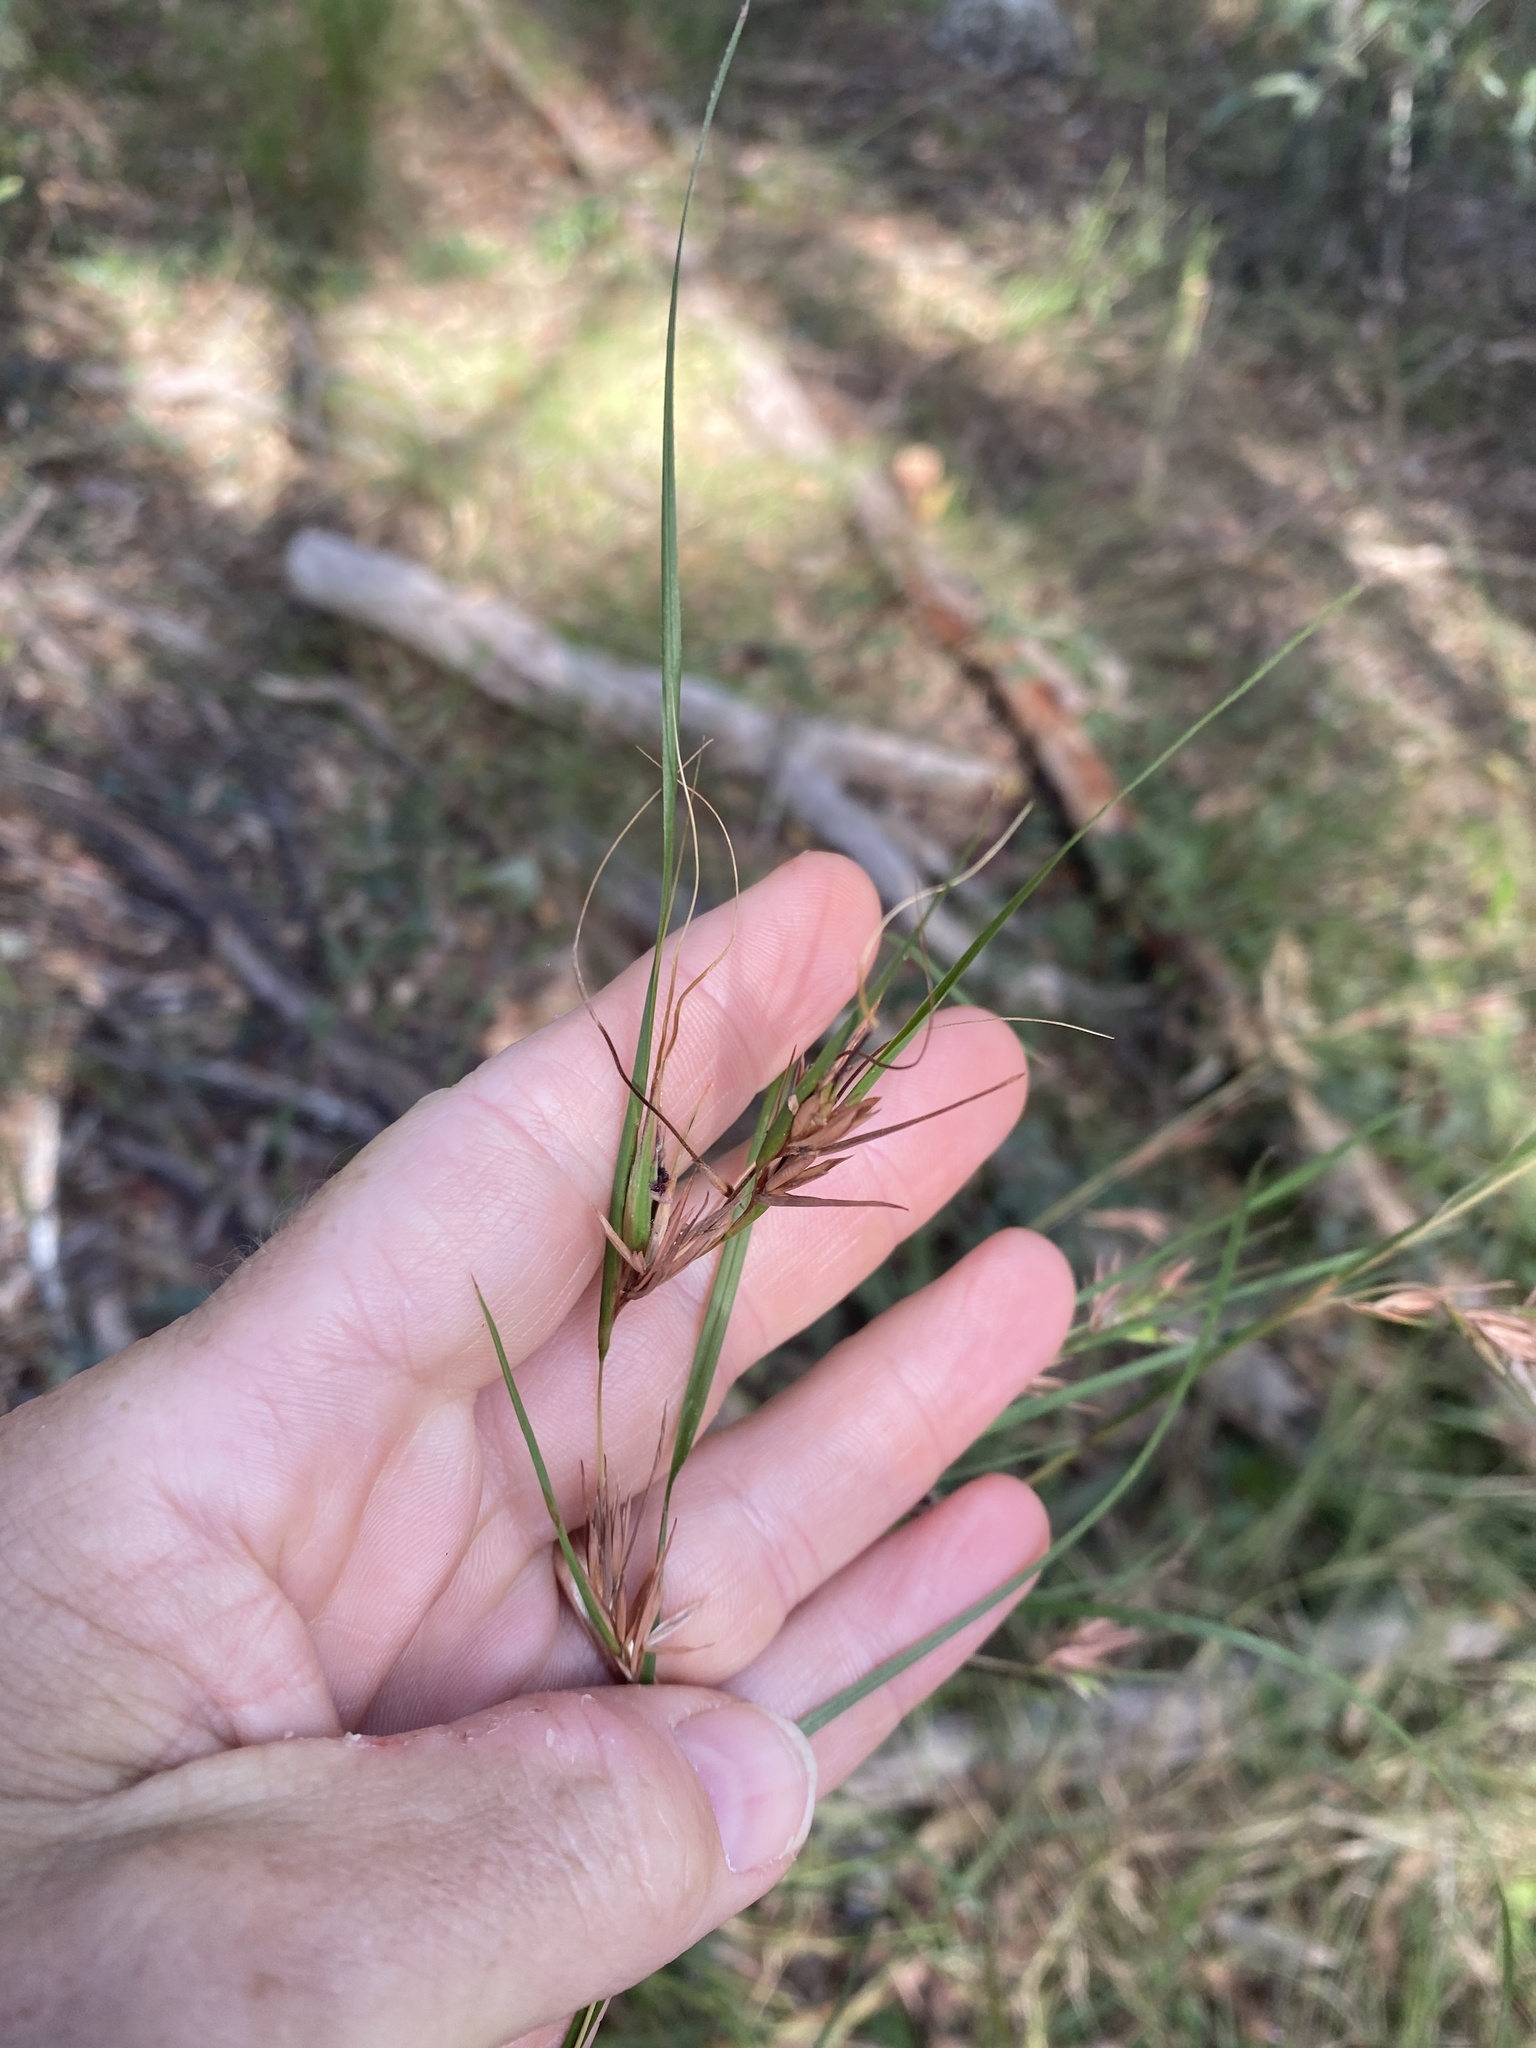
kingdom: Plantae
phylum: Tracheophyta
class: Liliopsida
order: Poales
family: Poaceae
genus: Themeda
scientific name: Themeda triandra
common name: Kangaroo grass
